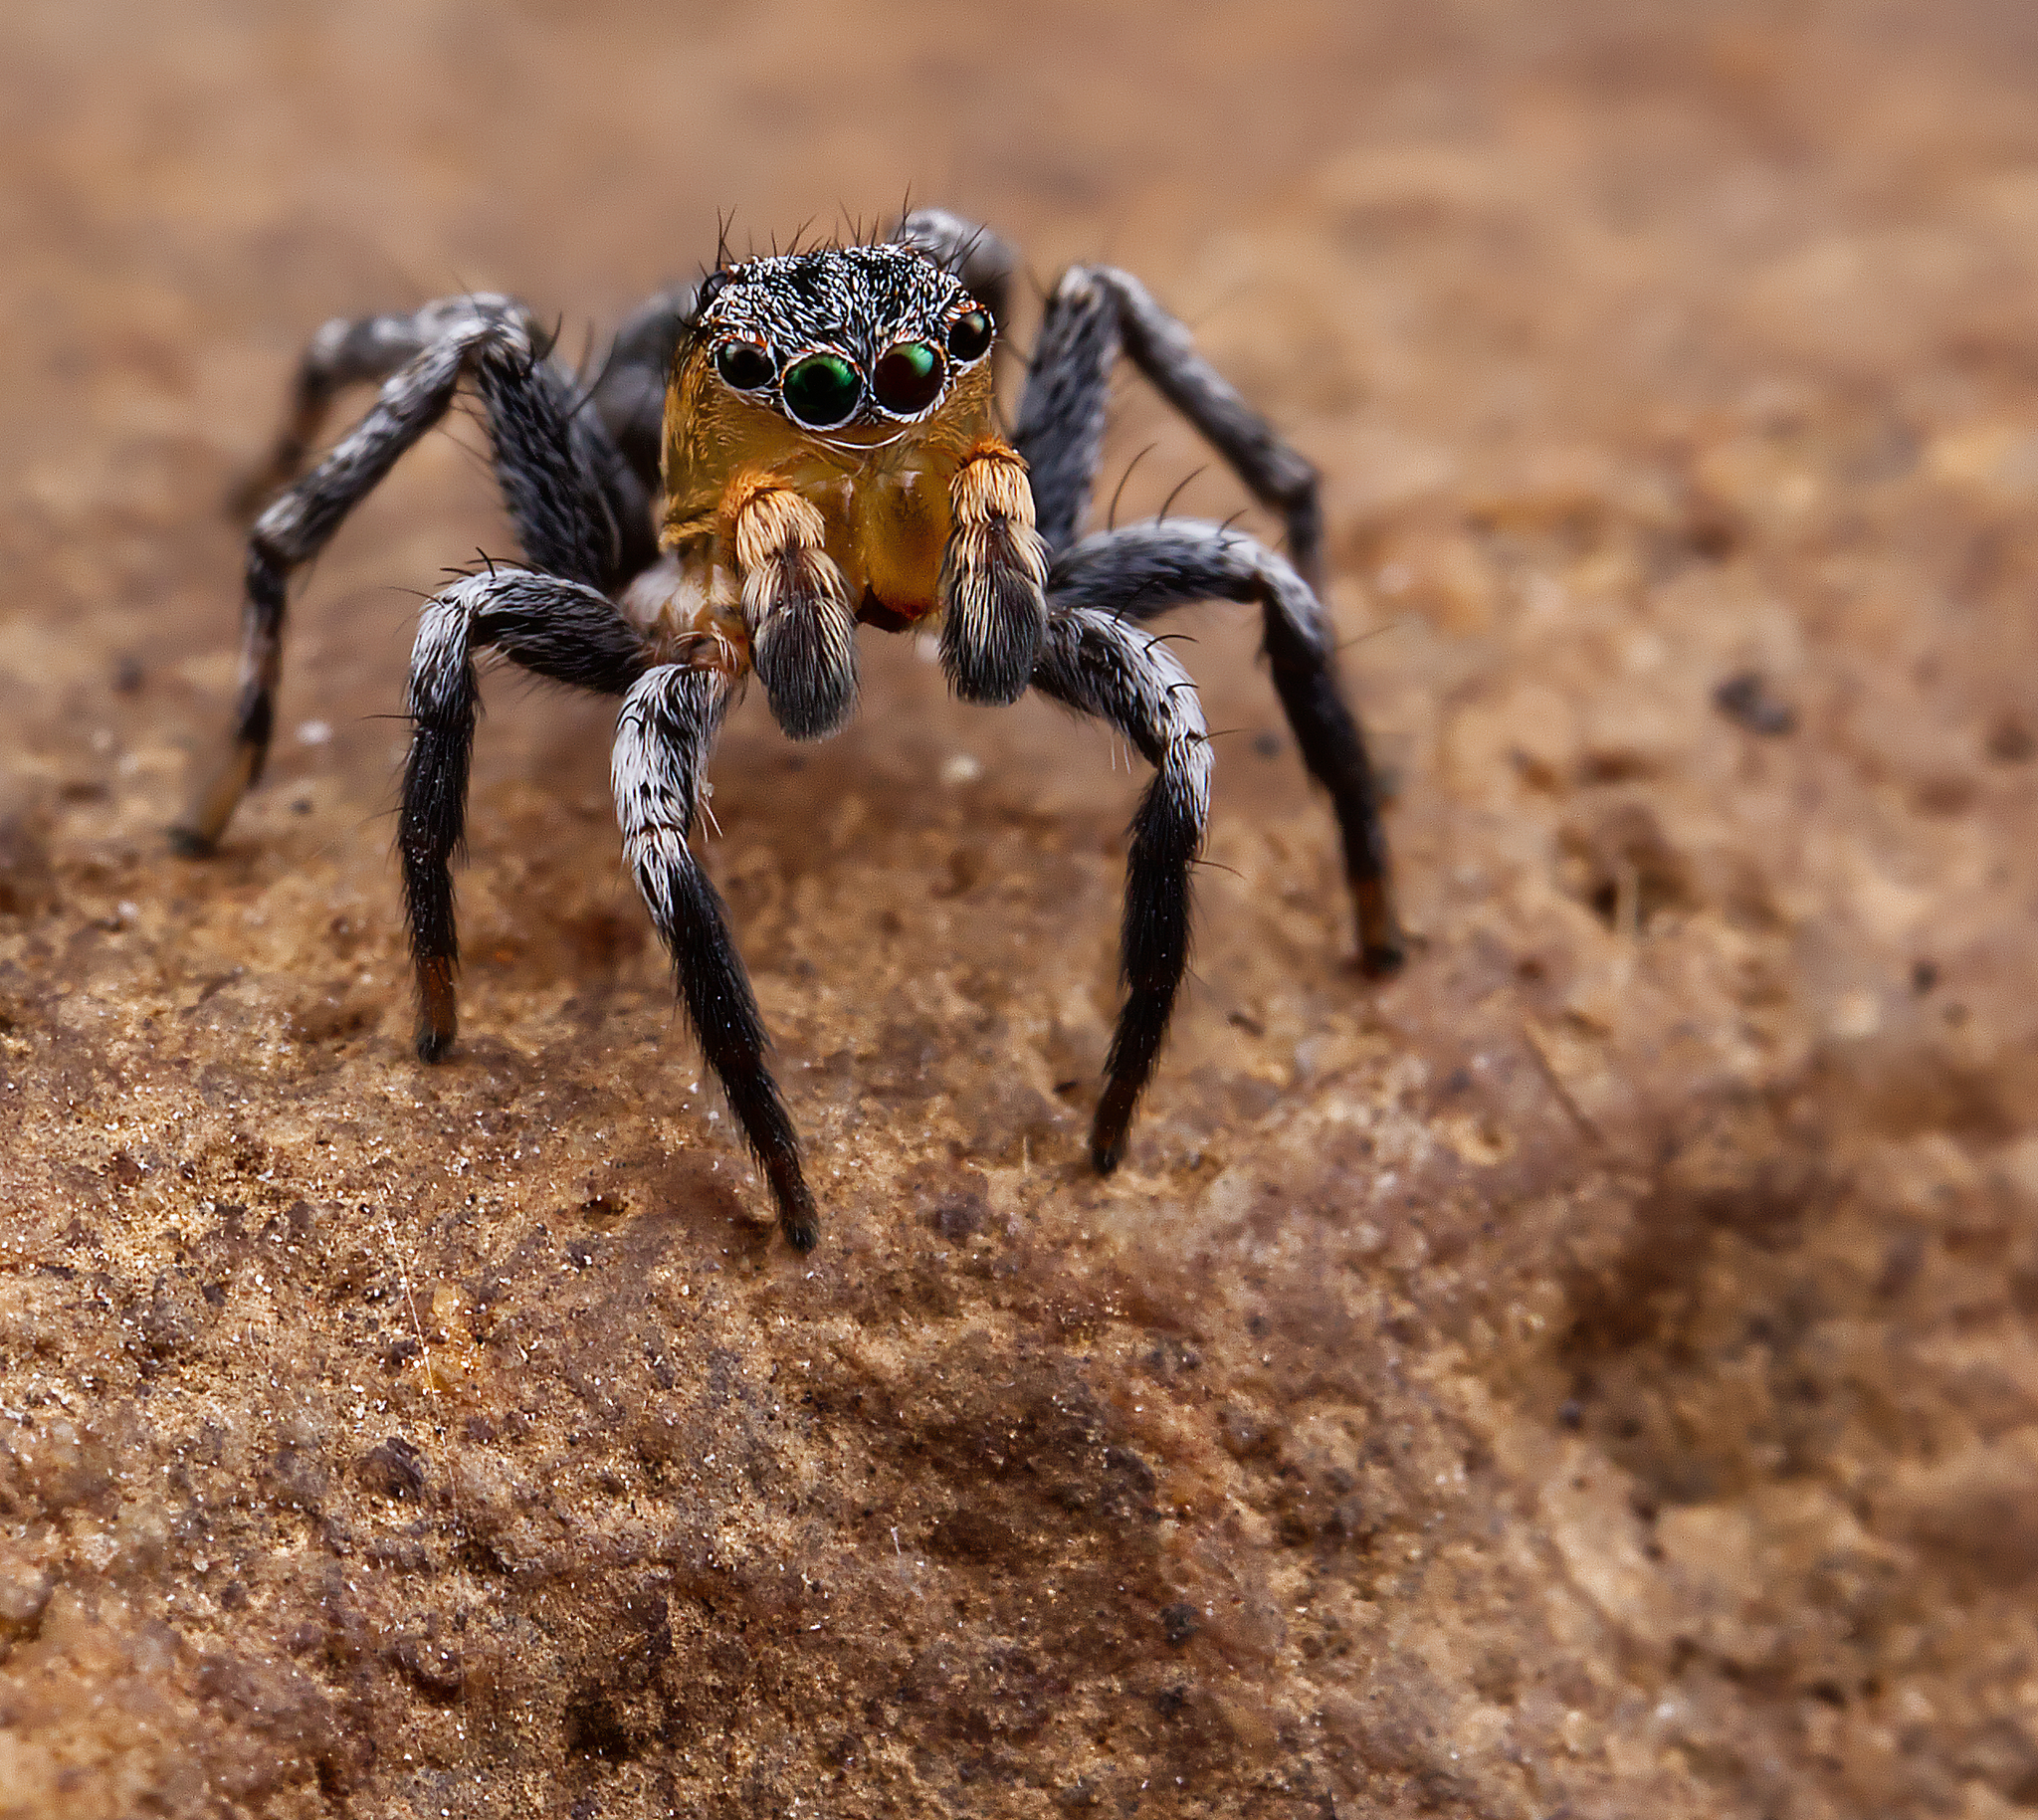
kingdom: Animalia
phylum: Arthropoda
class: Arachnida
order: Araneae
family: Salticidae
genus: Naphrys
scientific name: Naphrys pulex
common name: Flea jumping spider
